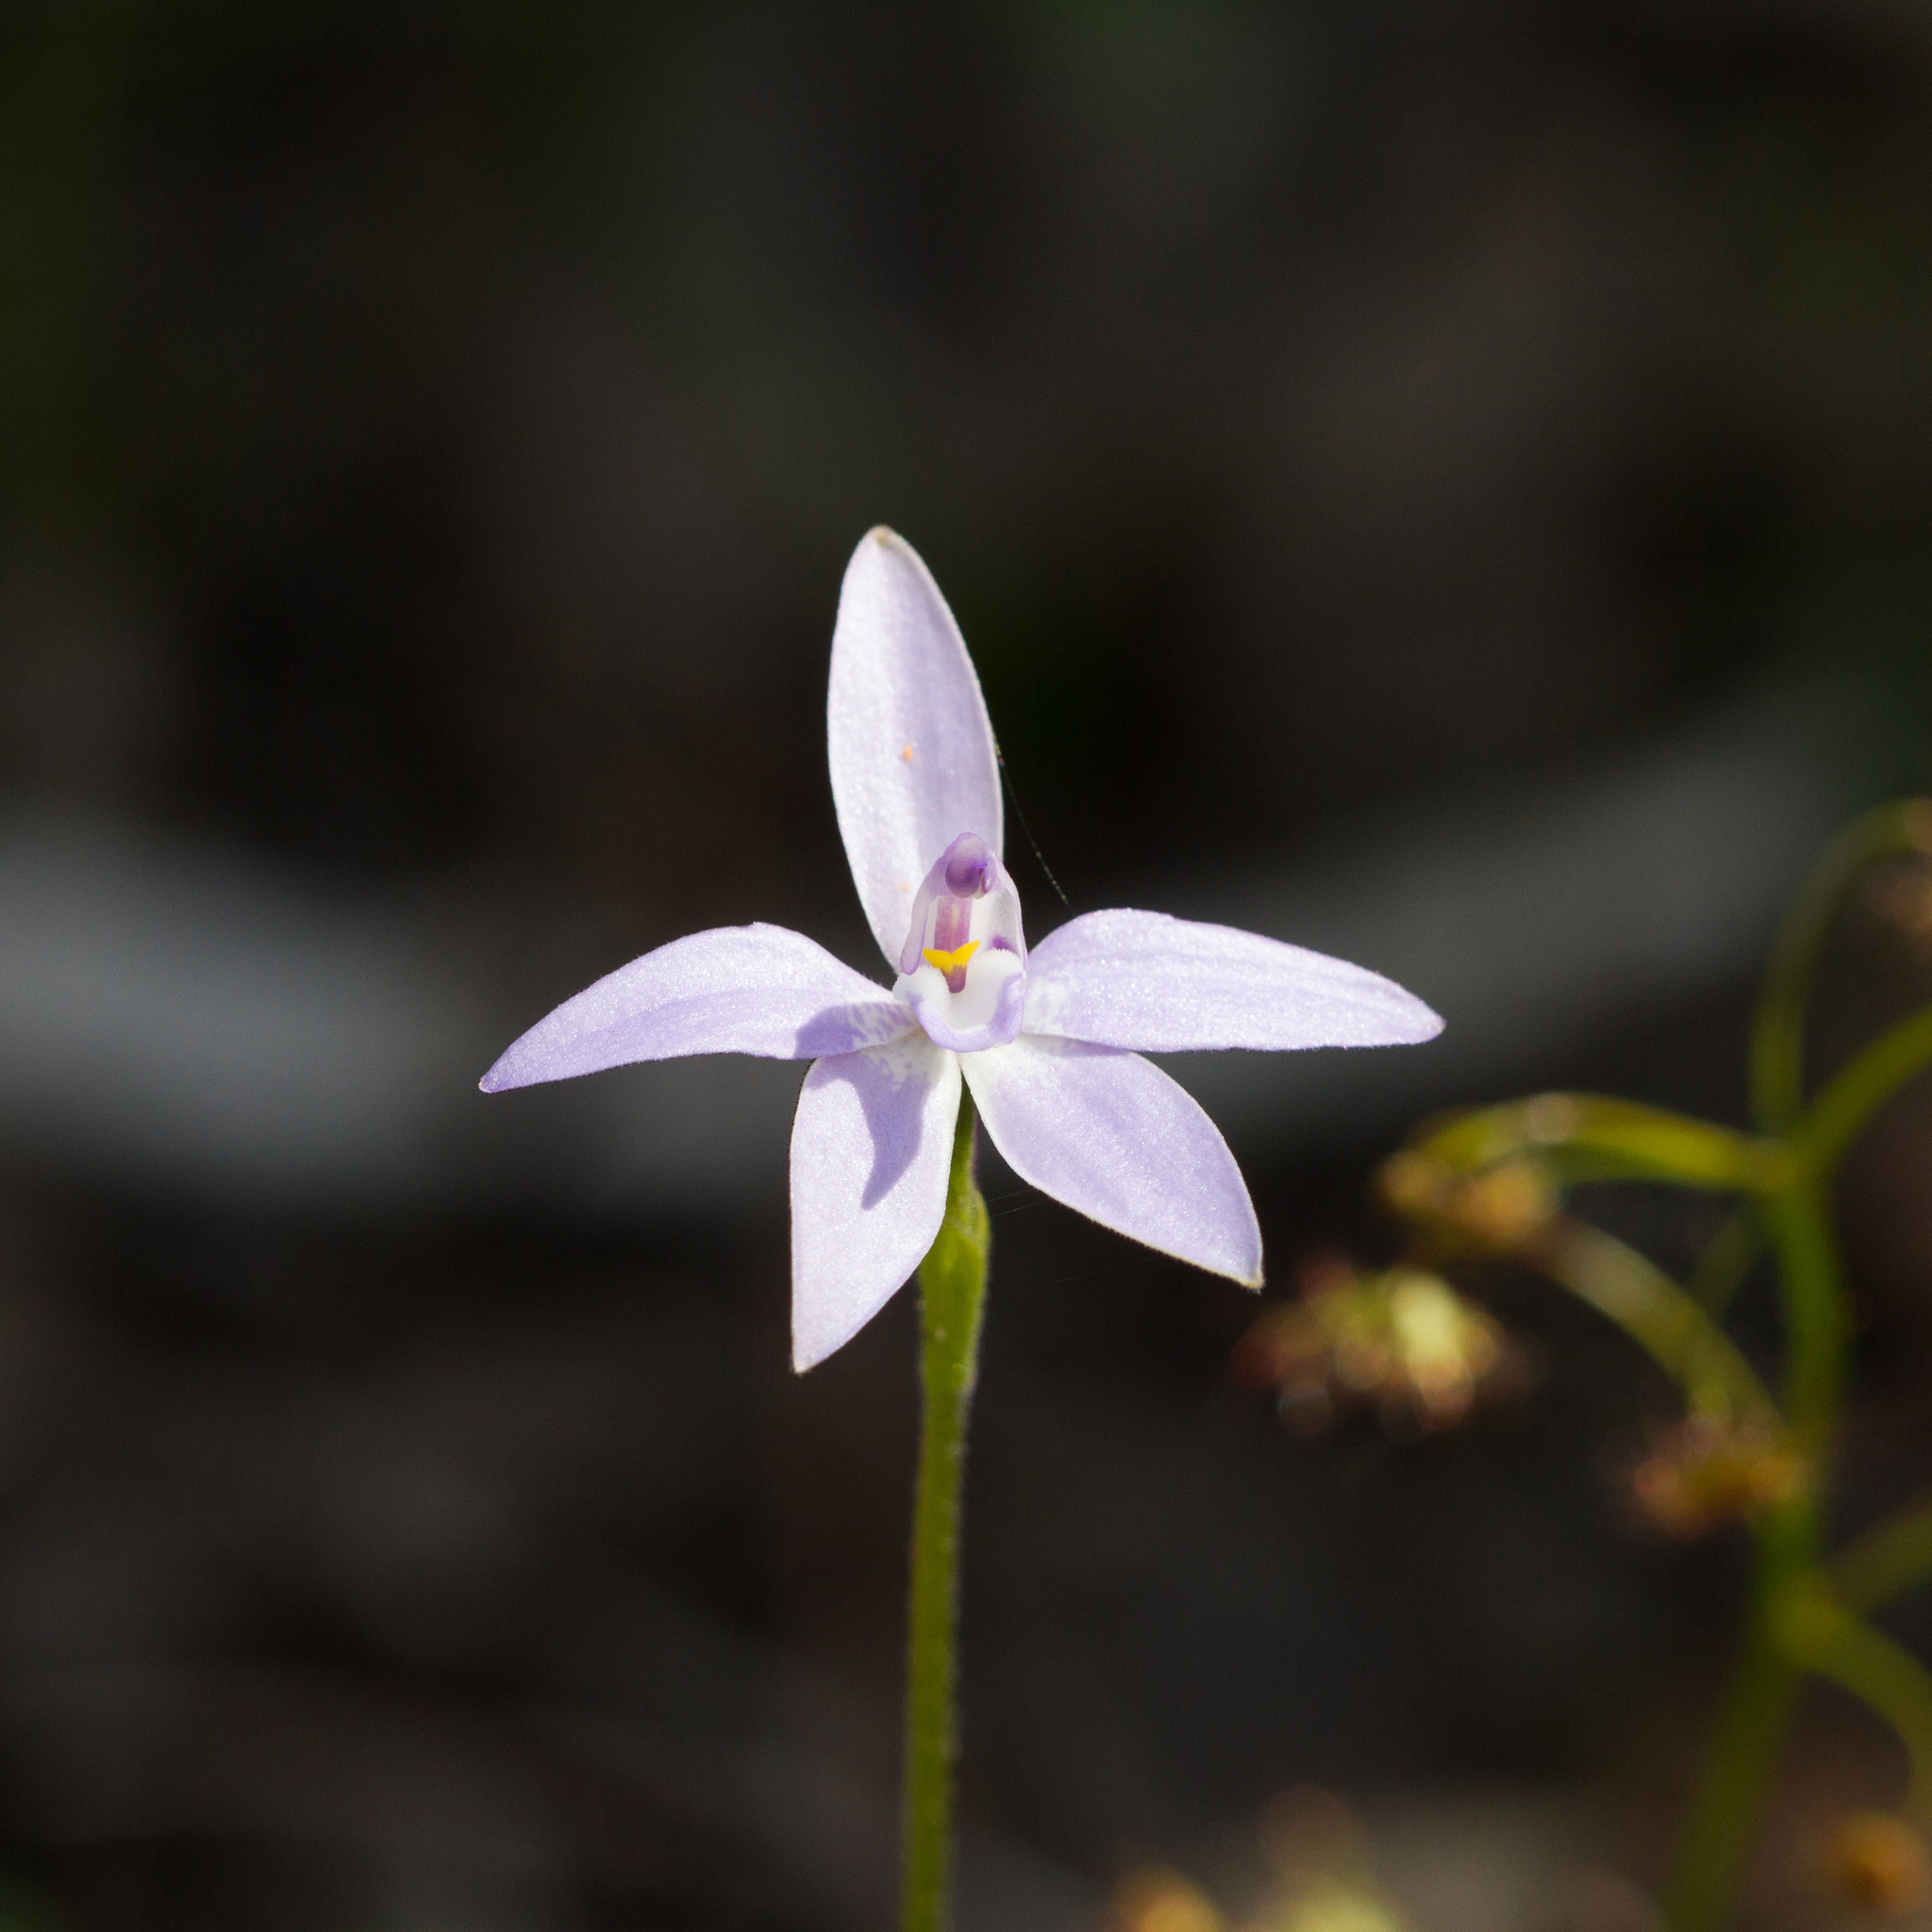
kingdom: Plantae
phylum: Tracheophyta
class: Liliopsida
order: Asparagales
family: Orchidaceae
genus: Caladenia
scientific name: Caladenia major
